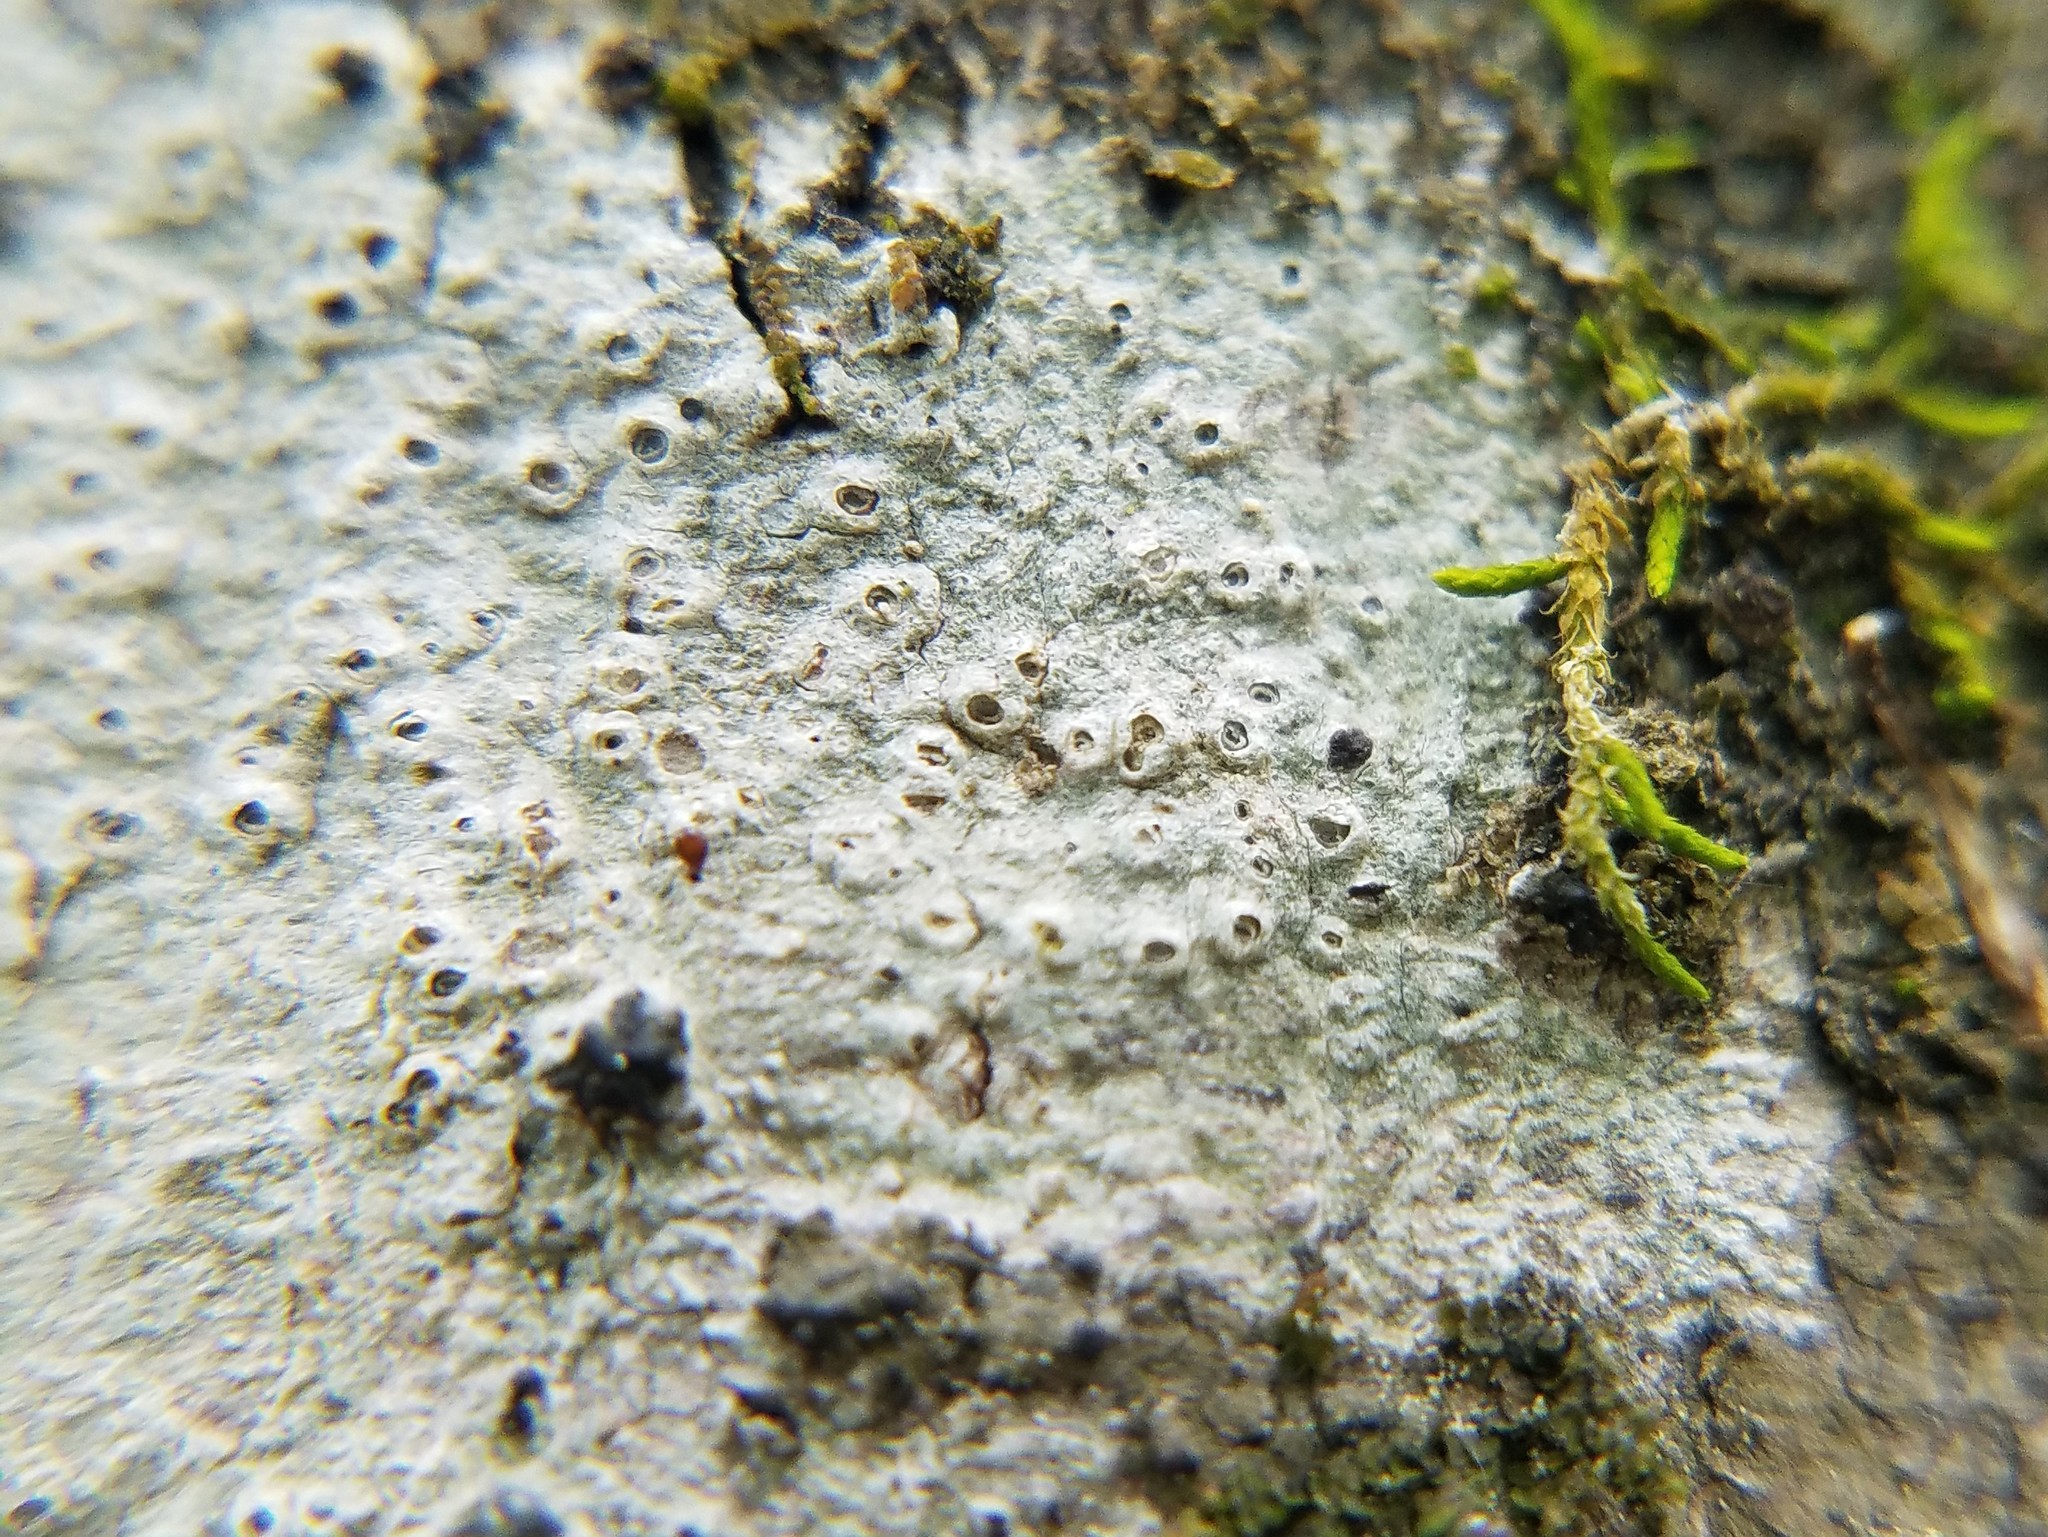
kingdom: Fungi
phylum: Ascomycota
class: Lecanoromycetes
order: Ostropales
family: Graphidaceae
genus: Thelotrema
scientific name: Thelotrema subtile
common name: Delicate barnacles lichen
